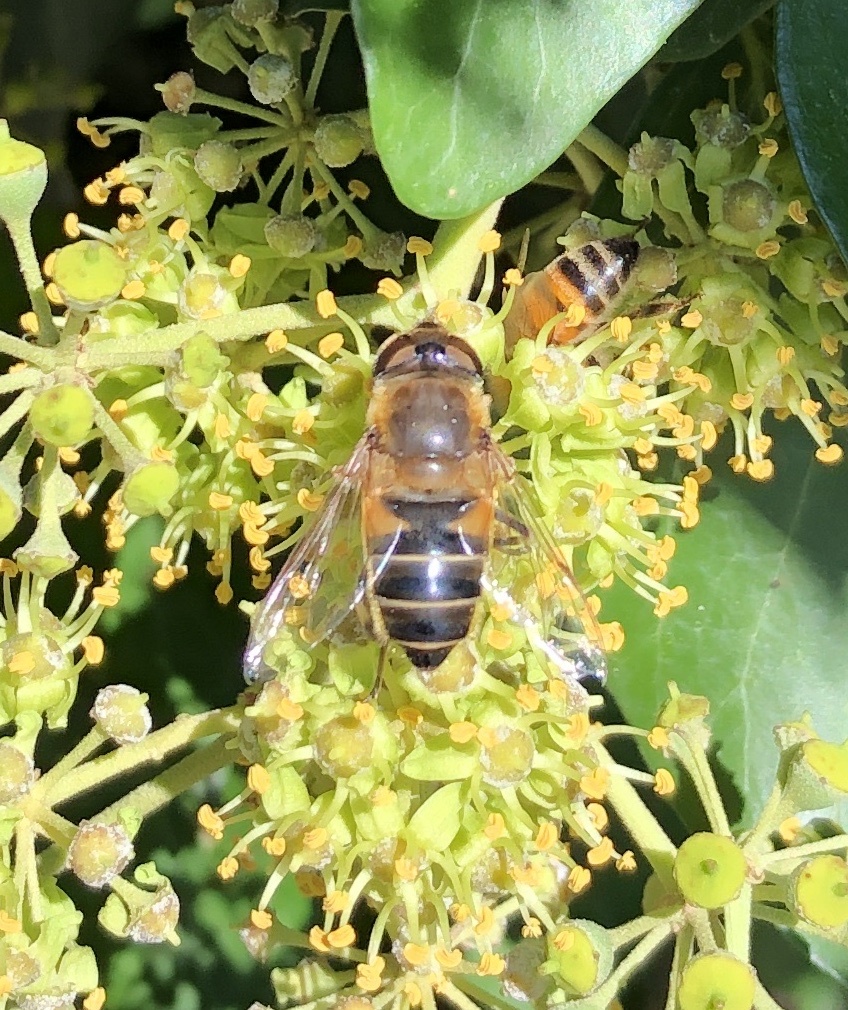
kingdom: Animalia
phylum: Arthropoda
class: Insecta
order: Diptera
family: Syrphidae
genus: Eristalis
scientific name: Eristalis pertinax
